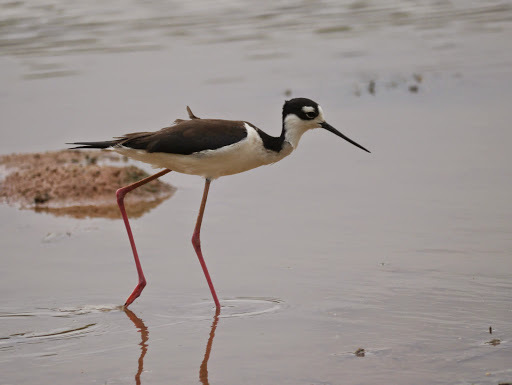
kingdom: Animalia
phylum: Chordata
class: Aves
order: Charadriiformes
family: Recurvirostridae
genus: Himantopus
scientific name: Himantopus mexicanus
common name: Black-necked stilt
